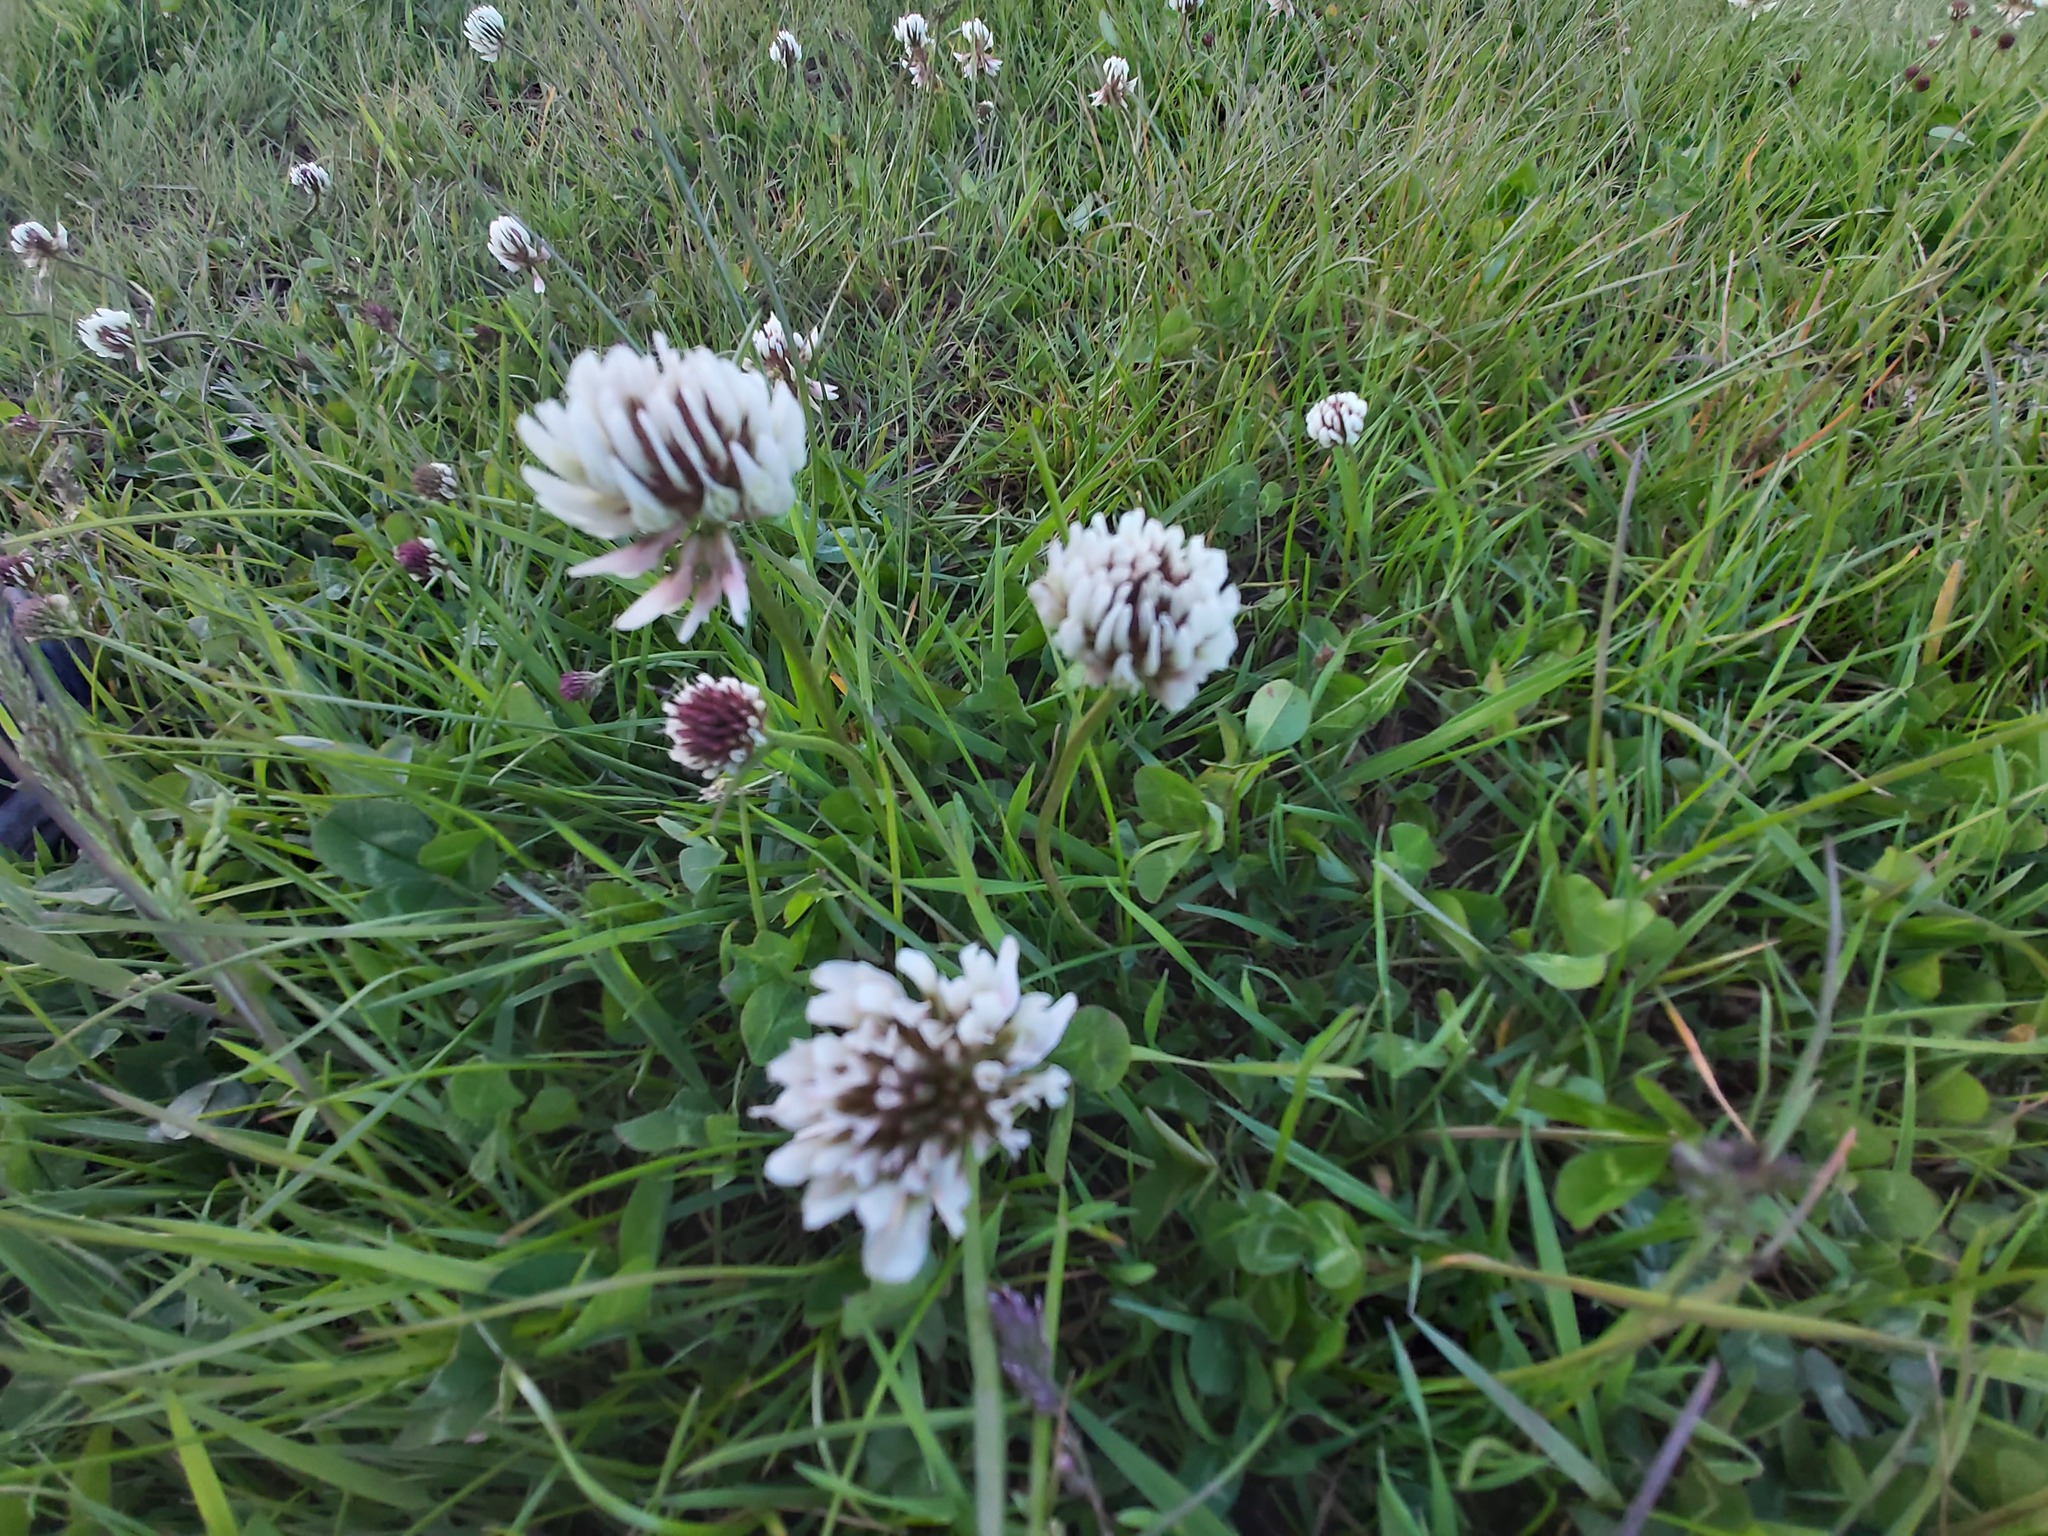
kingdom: Plantae
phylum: Tracheophyta
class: Magnoliopsida
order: Fabales
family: Fabaceae
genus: Trifolium
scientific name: Trifolium repens
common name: White clover
